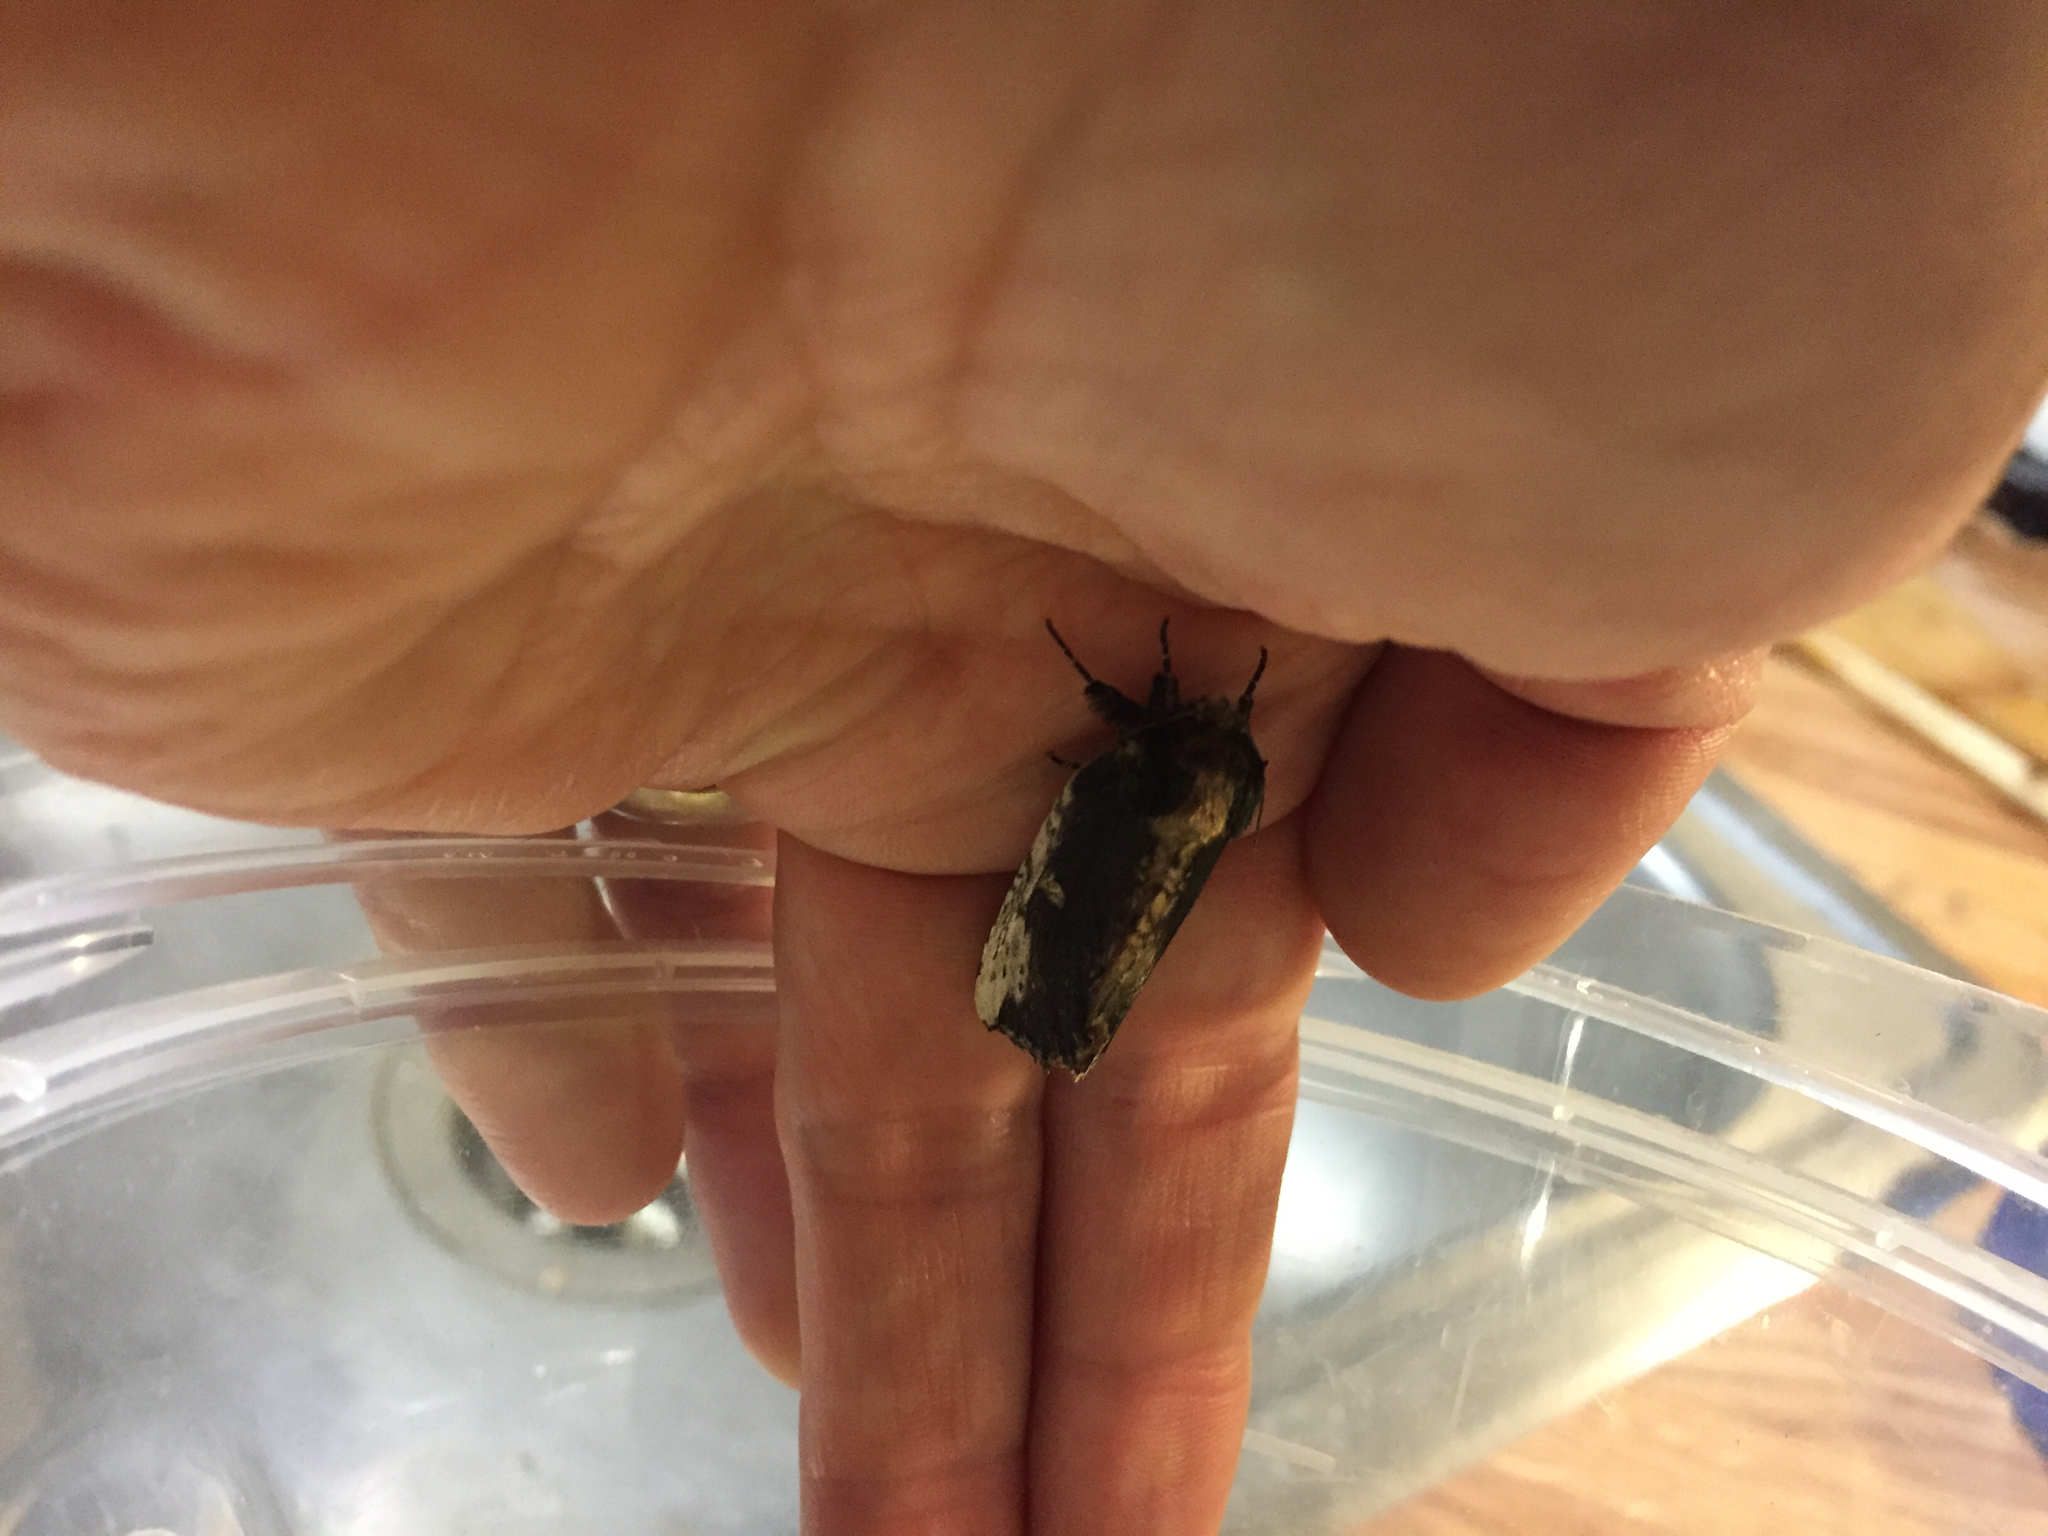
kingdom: Animalia
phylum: Arthropoda
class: Insecta
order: Lepidoptera
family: Notodontidae
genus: Schizura
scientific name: Schizura ipomaeae
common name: Morning-glory prominent
